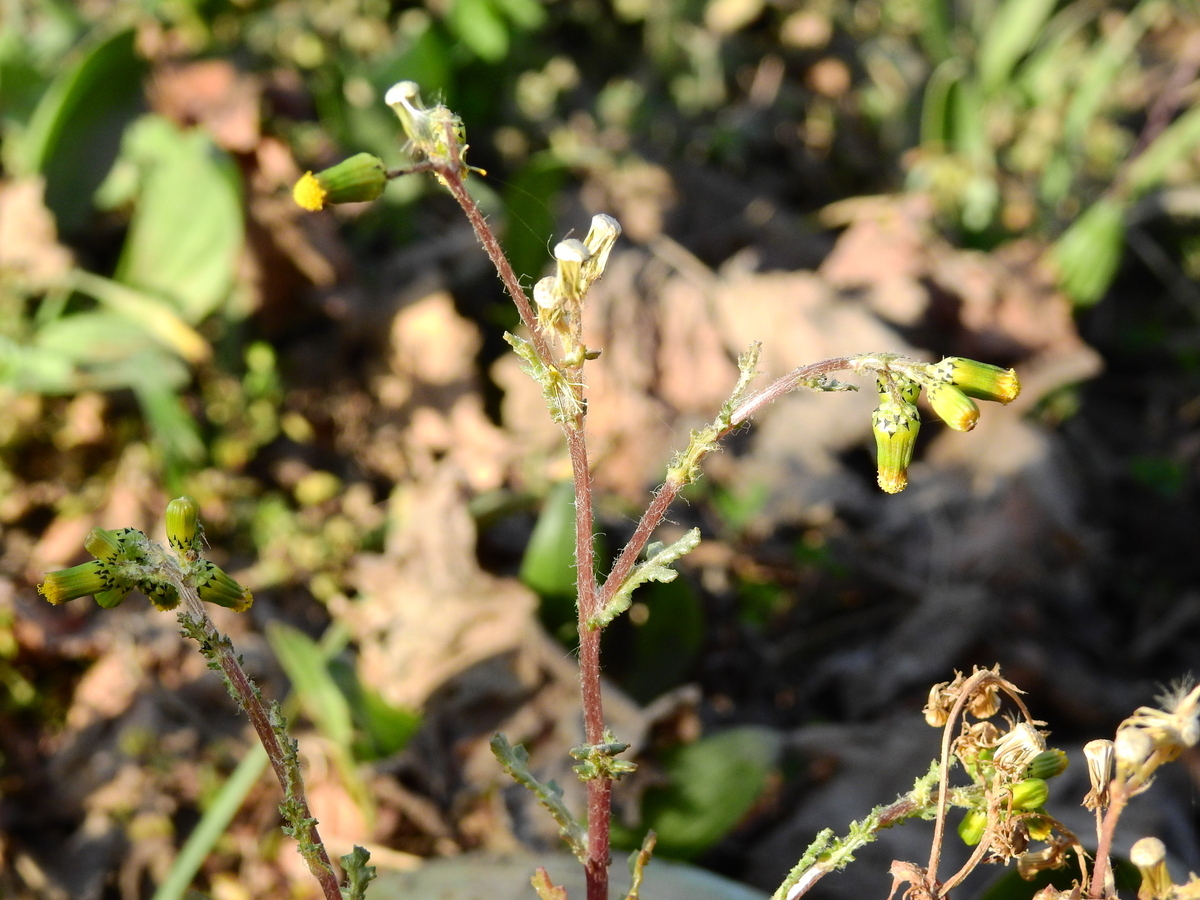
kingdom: Plantae
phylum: Tracheophyta
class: Magnoliopsida
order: Asterales
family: Asteraceae
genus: Senecio
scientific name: Senecio vulgaris
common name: Old-man-in-the-spring
